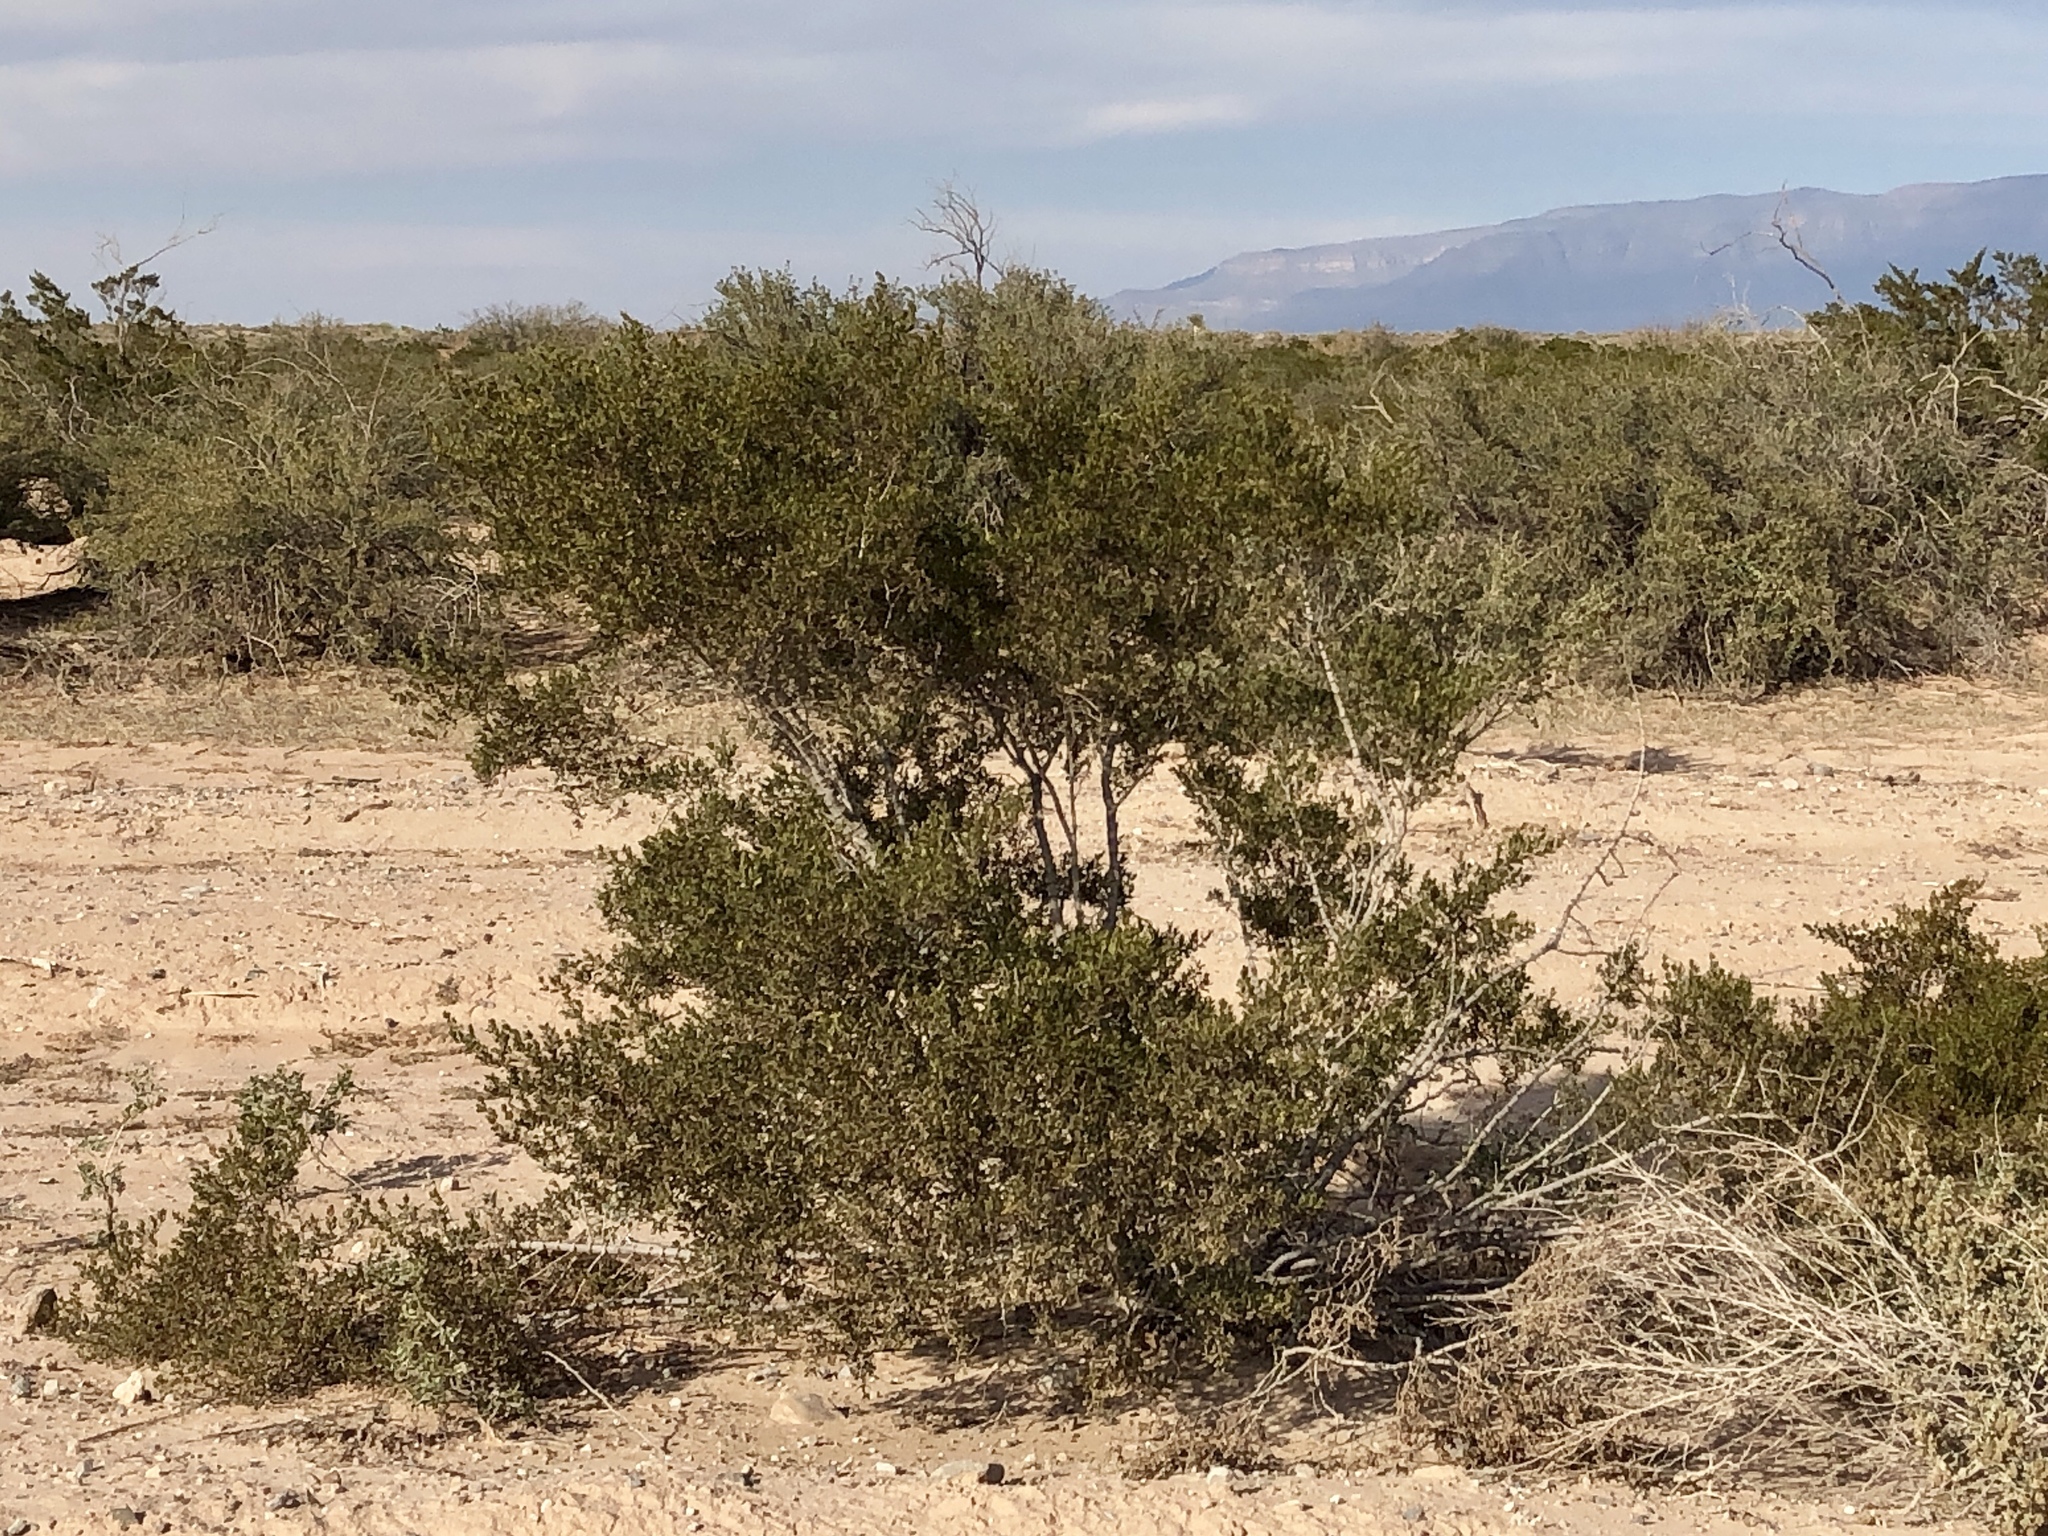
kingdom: Plantae
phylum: Tracheophyta
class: Magnoliopsida
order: Zygophyllales
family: Zygophyllaceae
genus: Larrea
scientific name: Larrea tridentata
